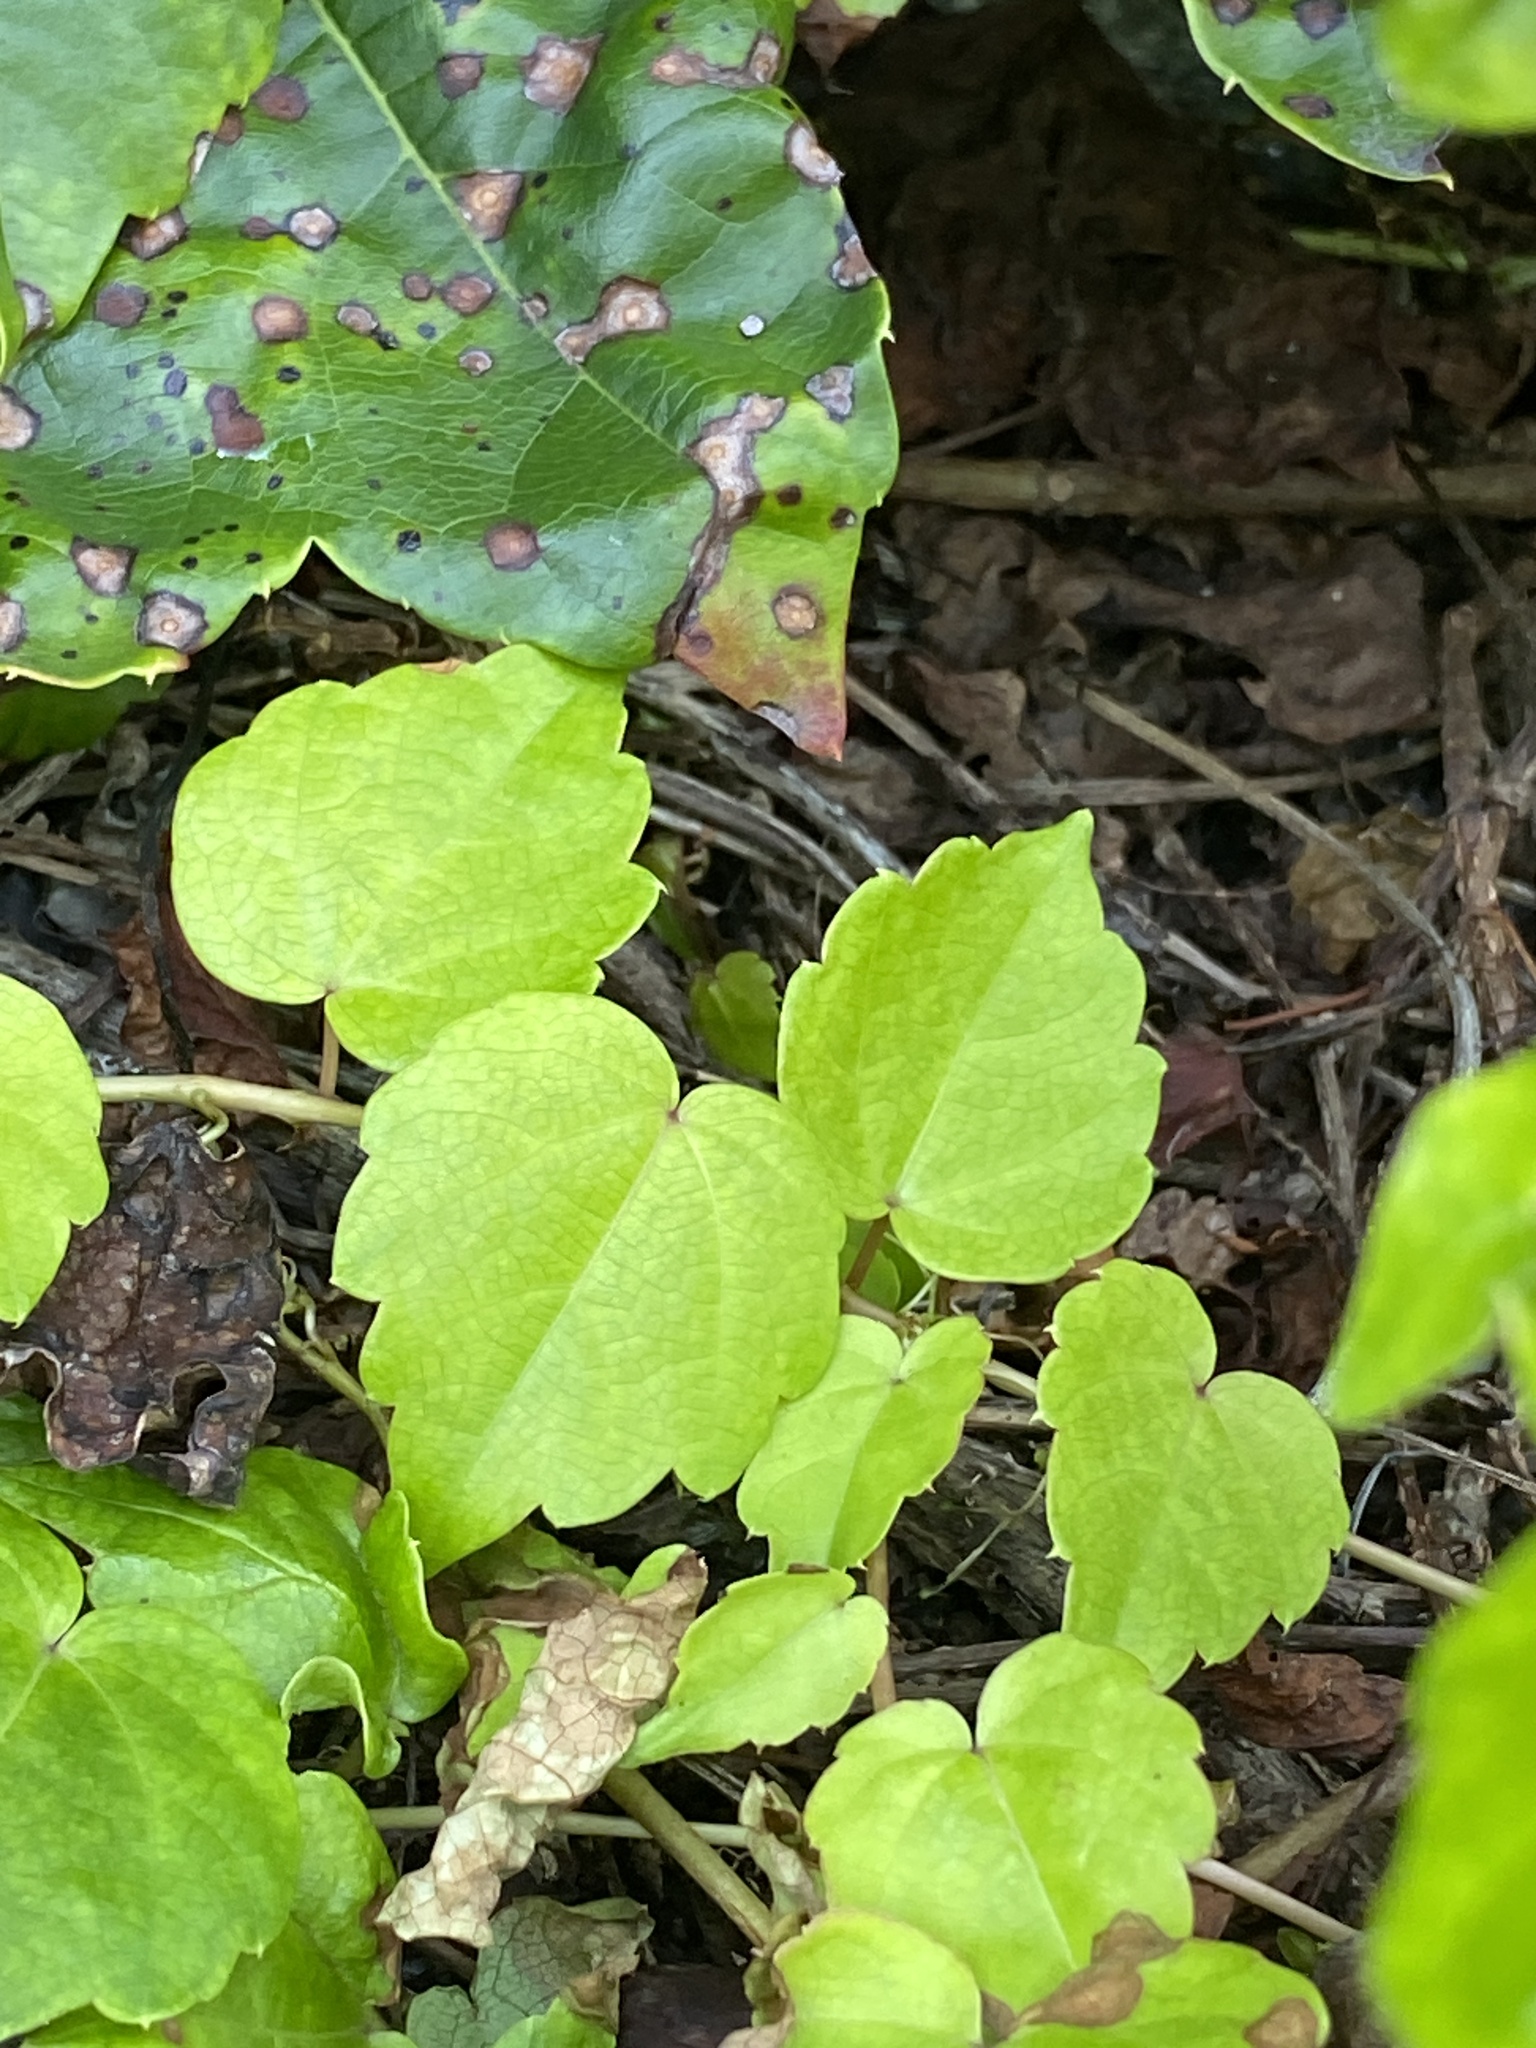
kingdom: Plantae
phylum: Tracheophyta
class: Magnoliopsida
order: Vitales
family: Vitaceae
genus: Parthenocissus
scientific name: Parthenocissus tricuspidata
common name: Boston ivy
